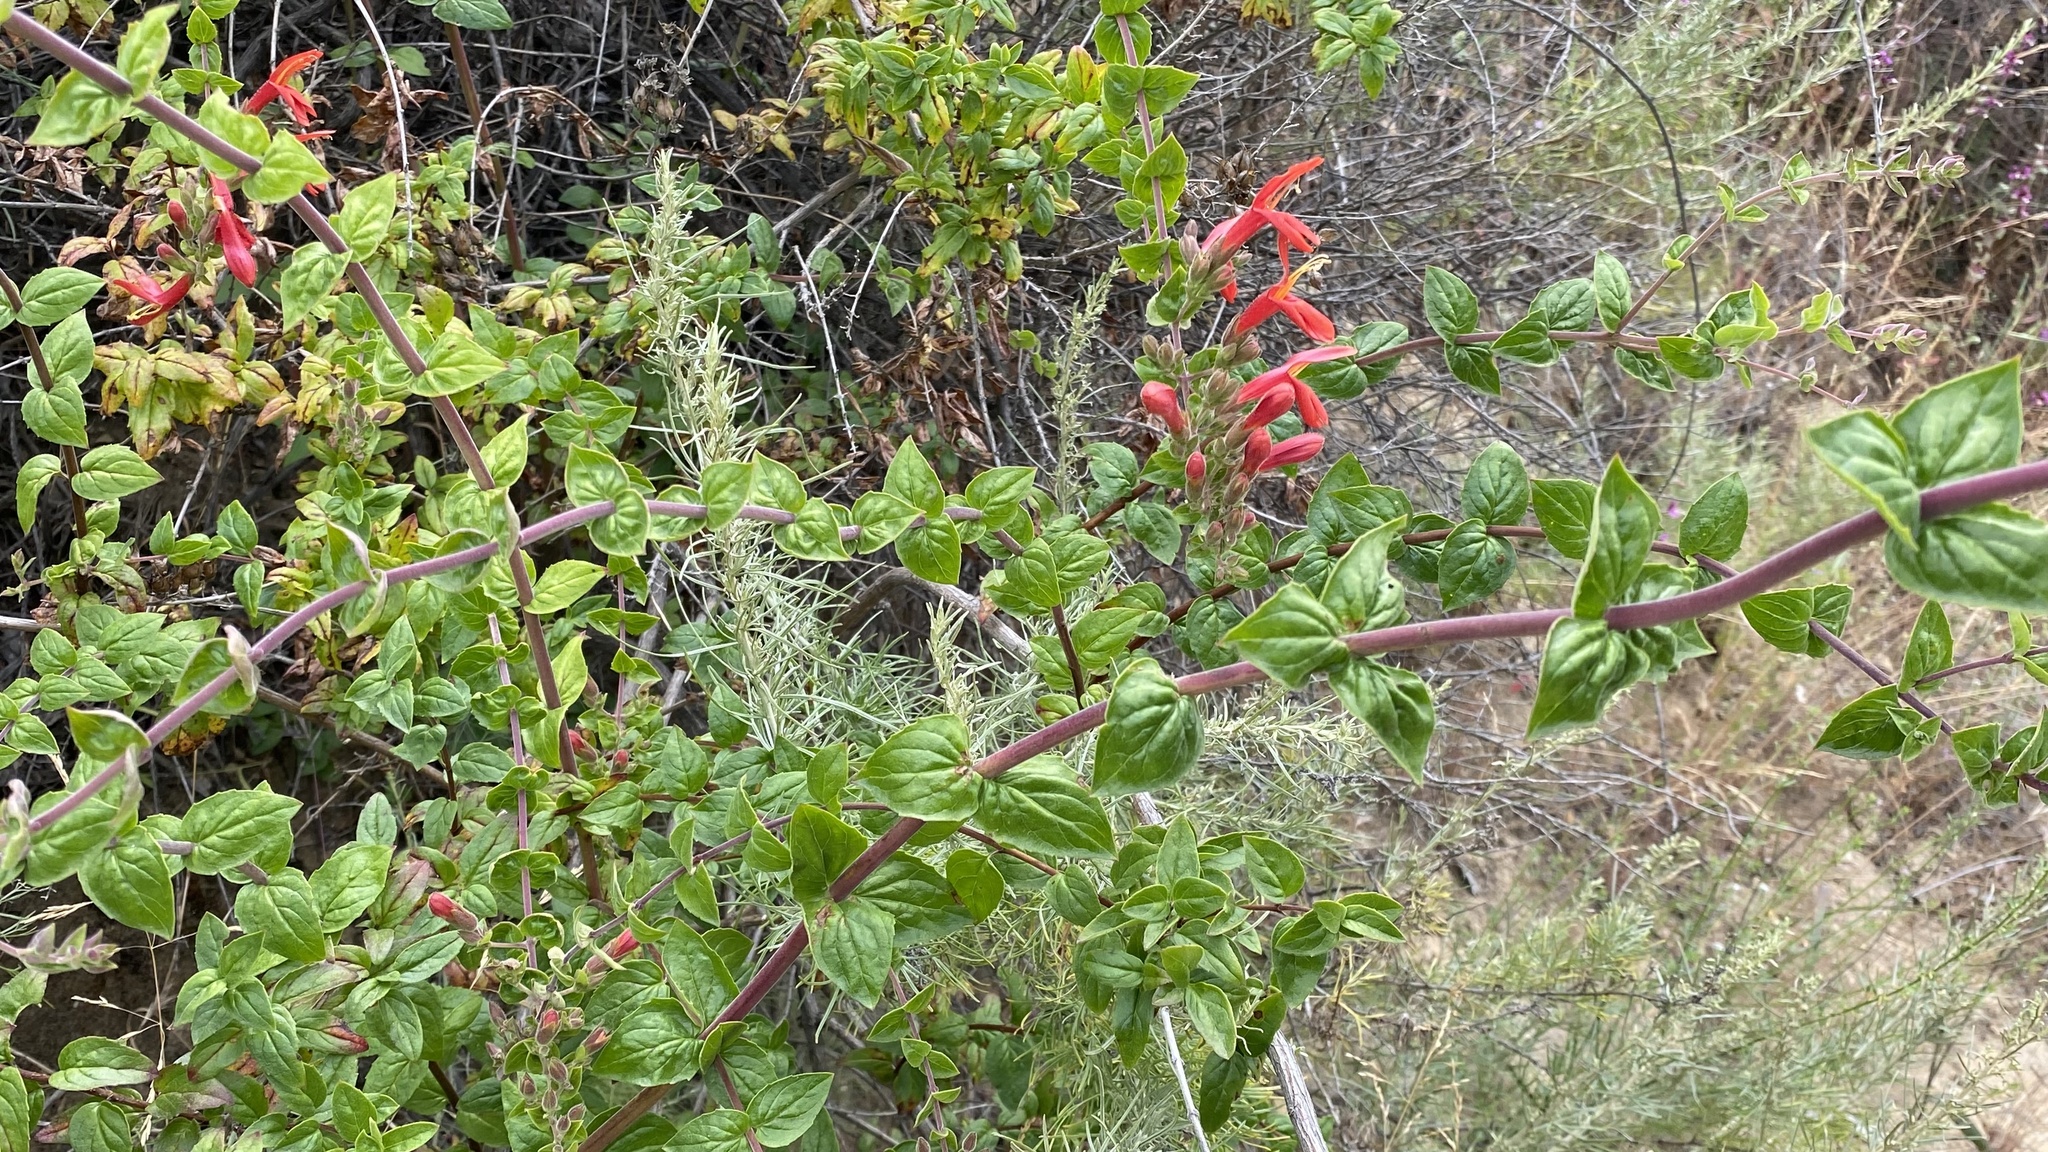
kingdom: Plantae
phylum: Tracheophyta
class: Magnoliopsida
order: Lamiales
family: Plantaginaceae
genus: Keckiella
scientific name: Keckiella cordifolia
